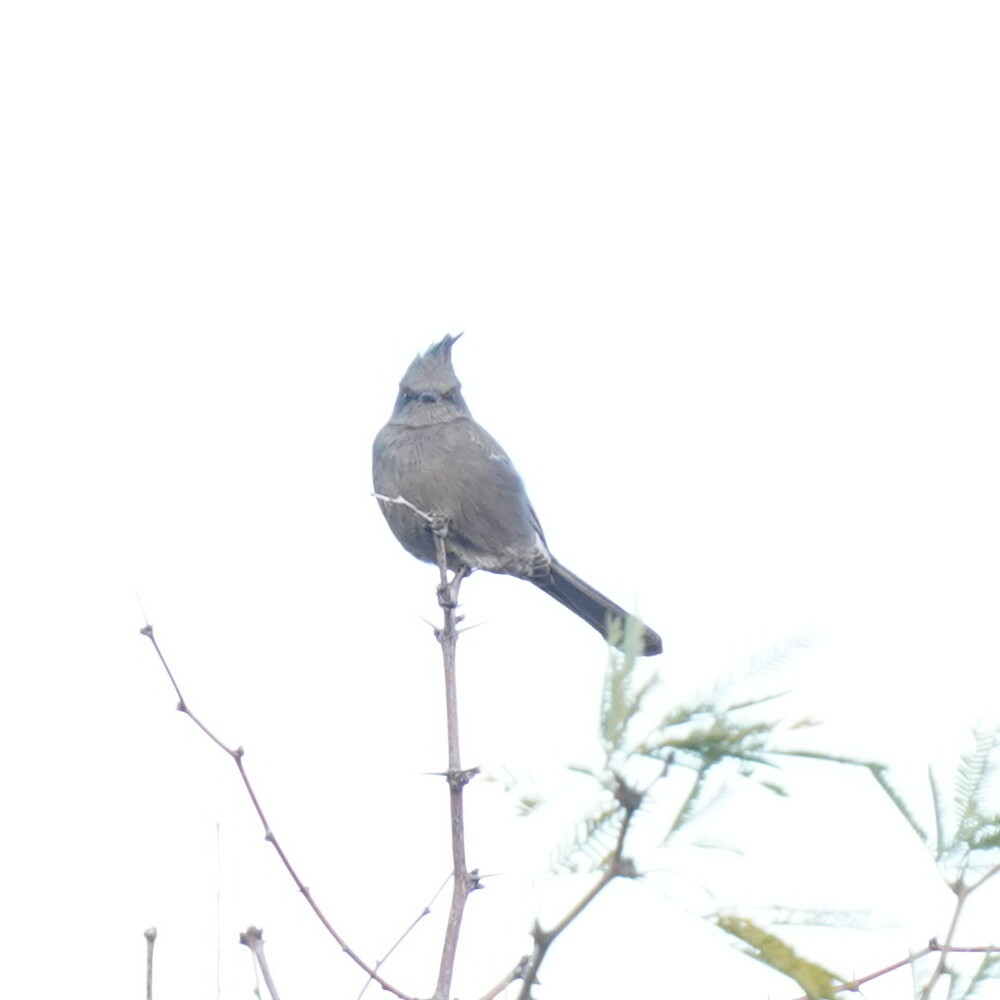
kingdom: Animalia
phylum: Chordata
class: Aves
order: Passeriformes
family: Ptilogonatidae
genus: Phainopepla
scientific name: Phainopepla nitens
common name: Phainopepla
